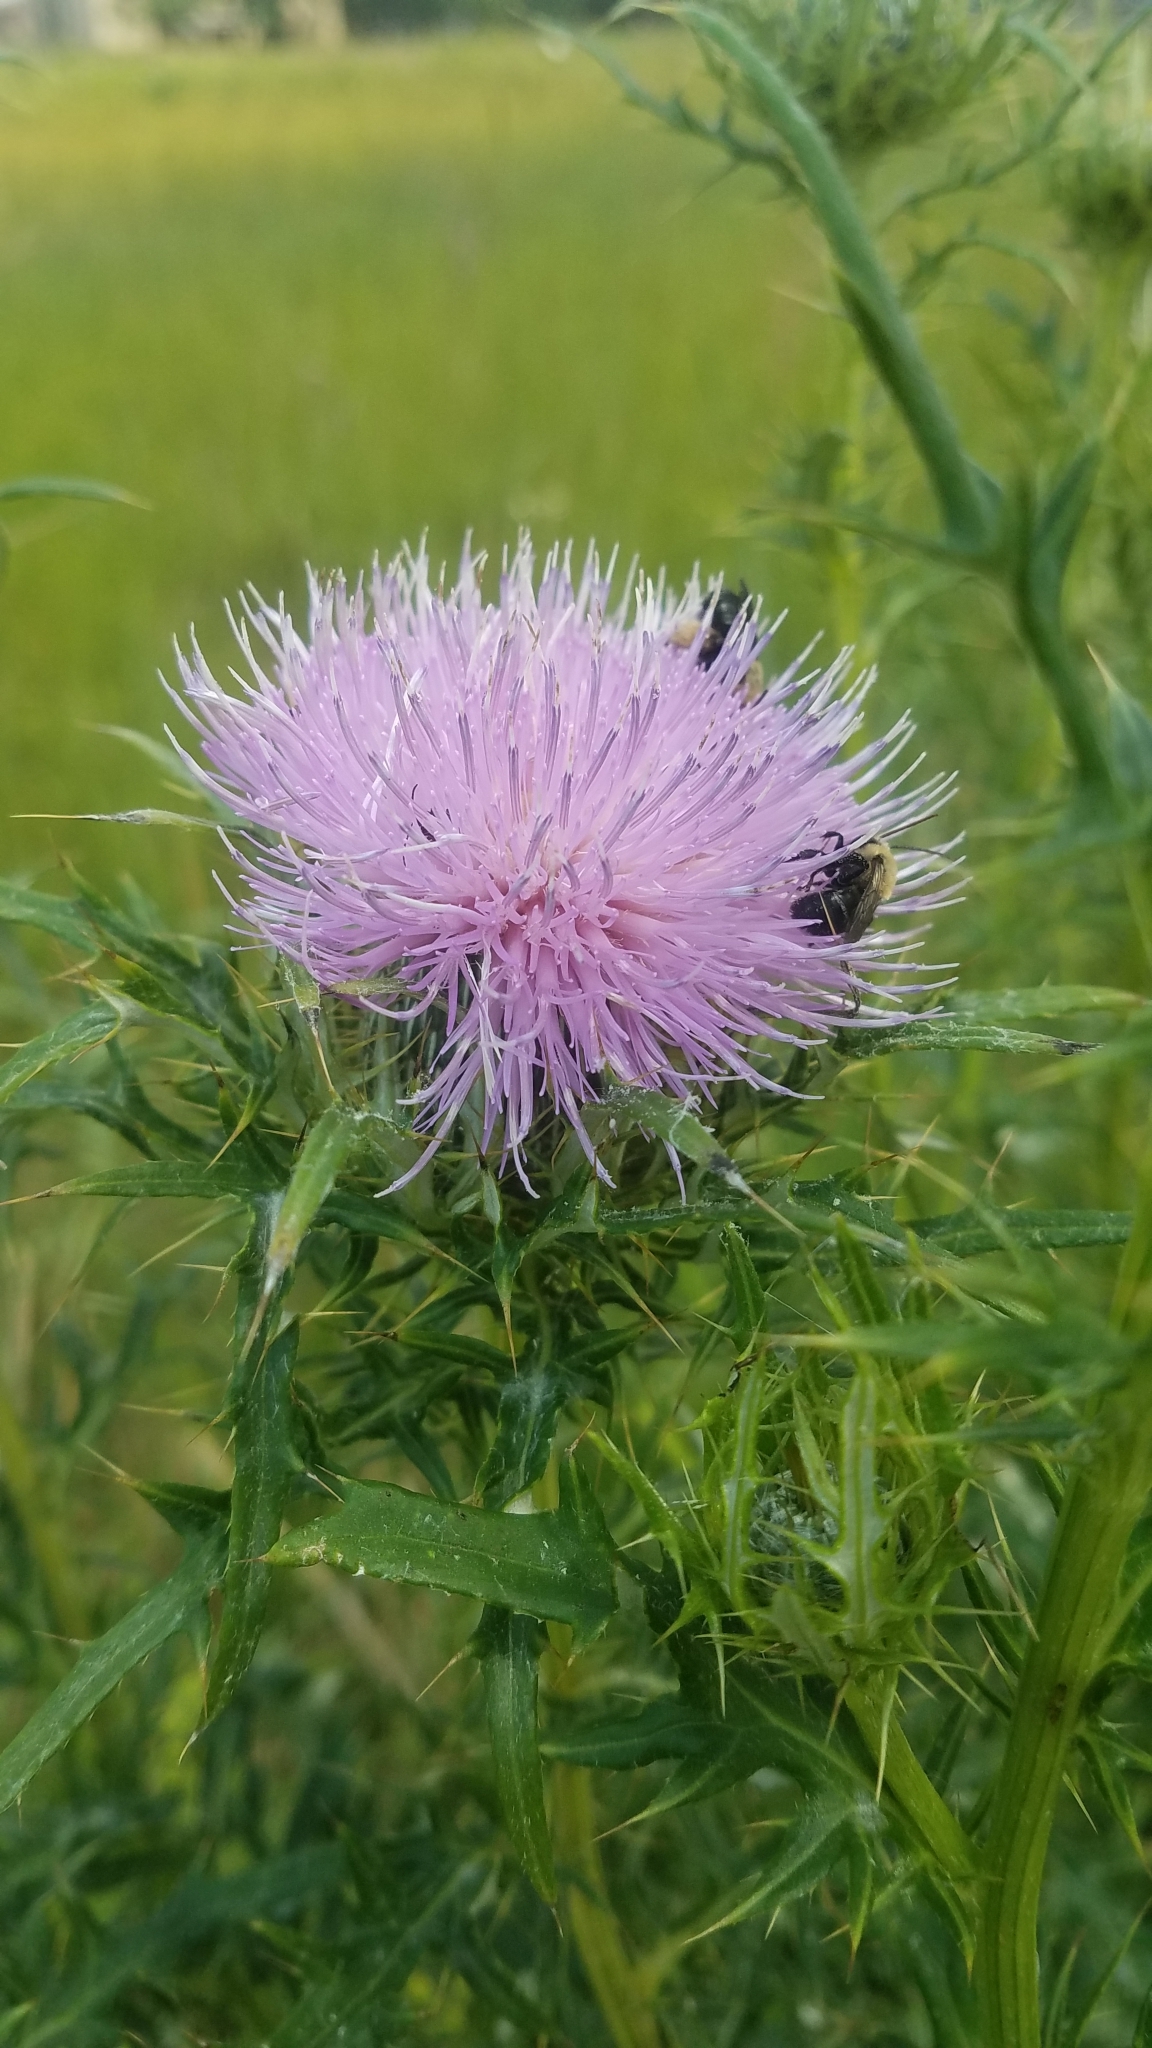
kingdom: Plantae
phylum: Tracheophyta
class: Magnoliopsida
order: Asterales
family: Asteraceae
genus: Cirsium
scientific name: Cirsium discolor
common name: Field thistle
